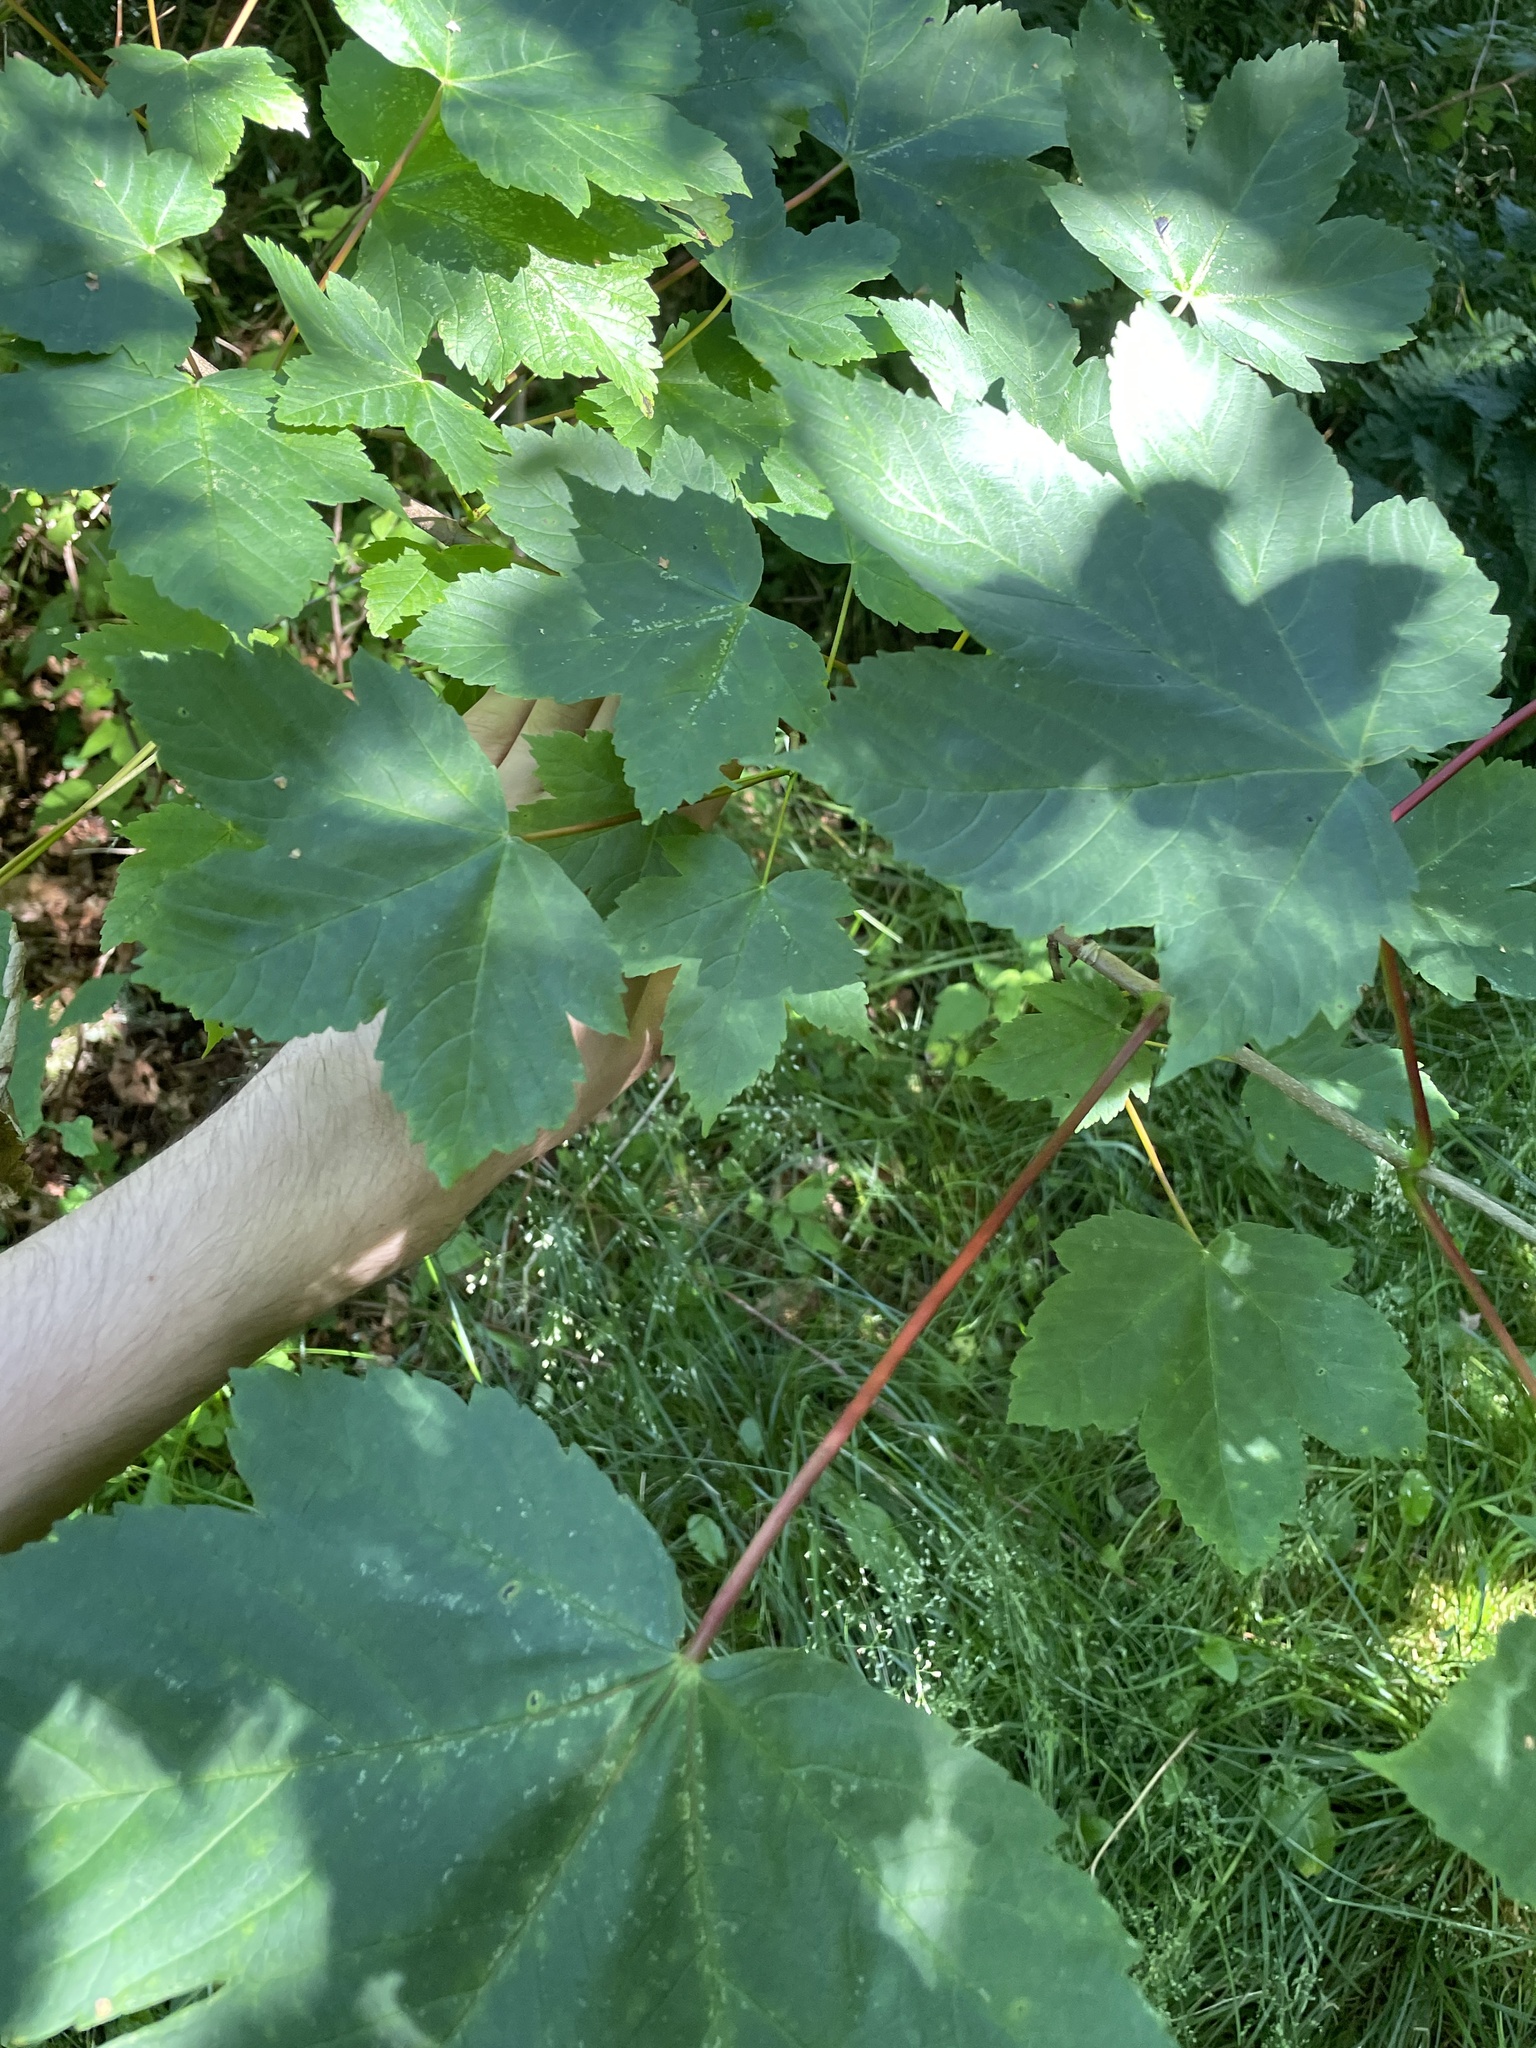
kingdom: Plantae
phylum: Tracheophyta
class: Magnoliopsida
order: Sapindales
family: Sapindaceae
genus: Acer
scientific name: Acer pseudoplatanus
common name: Sycamore
